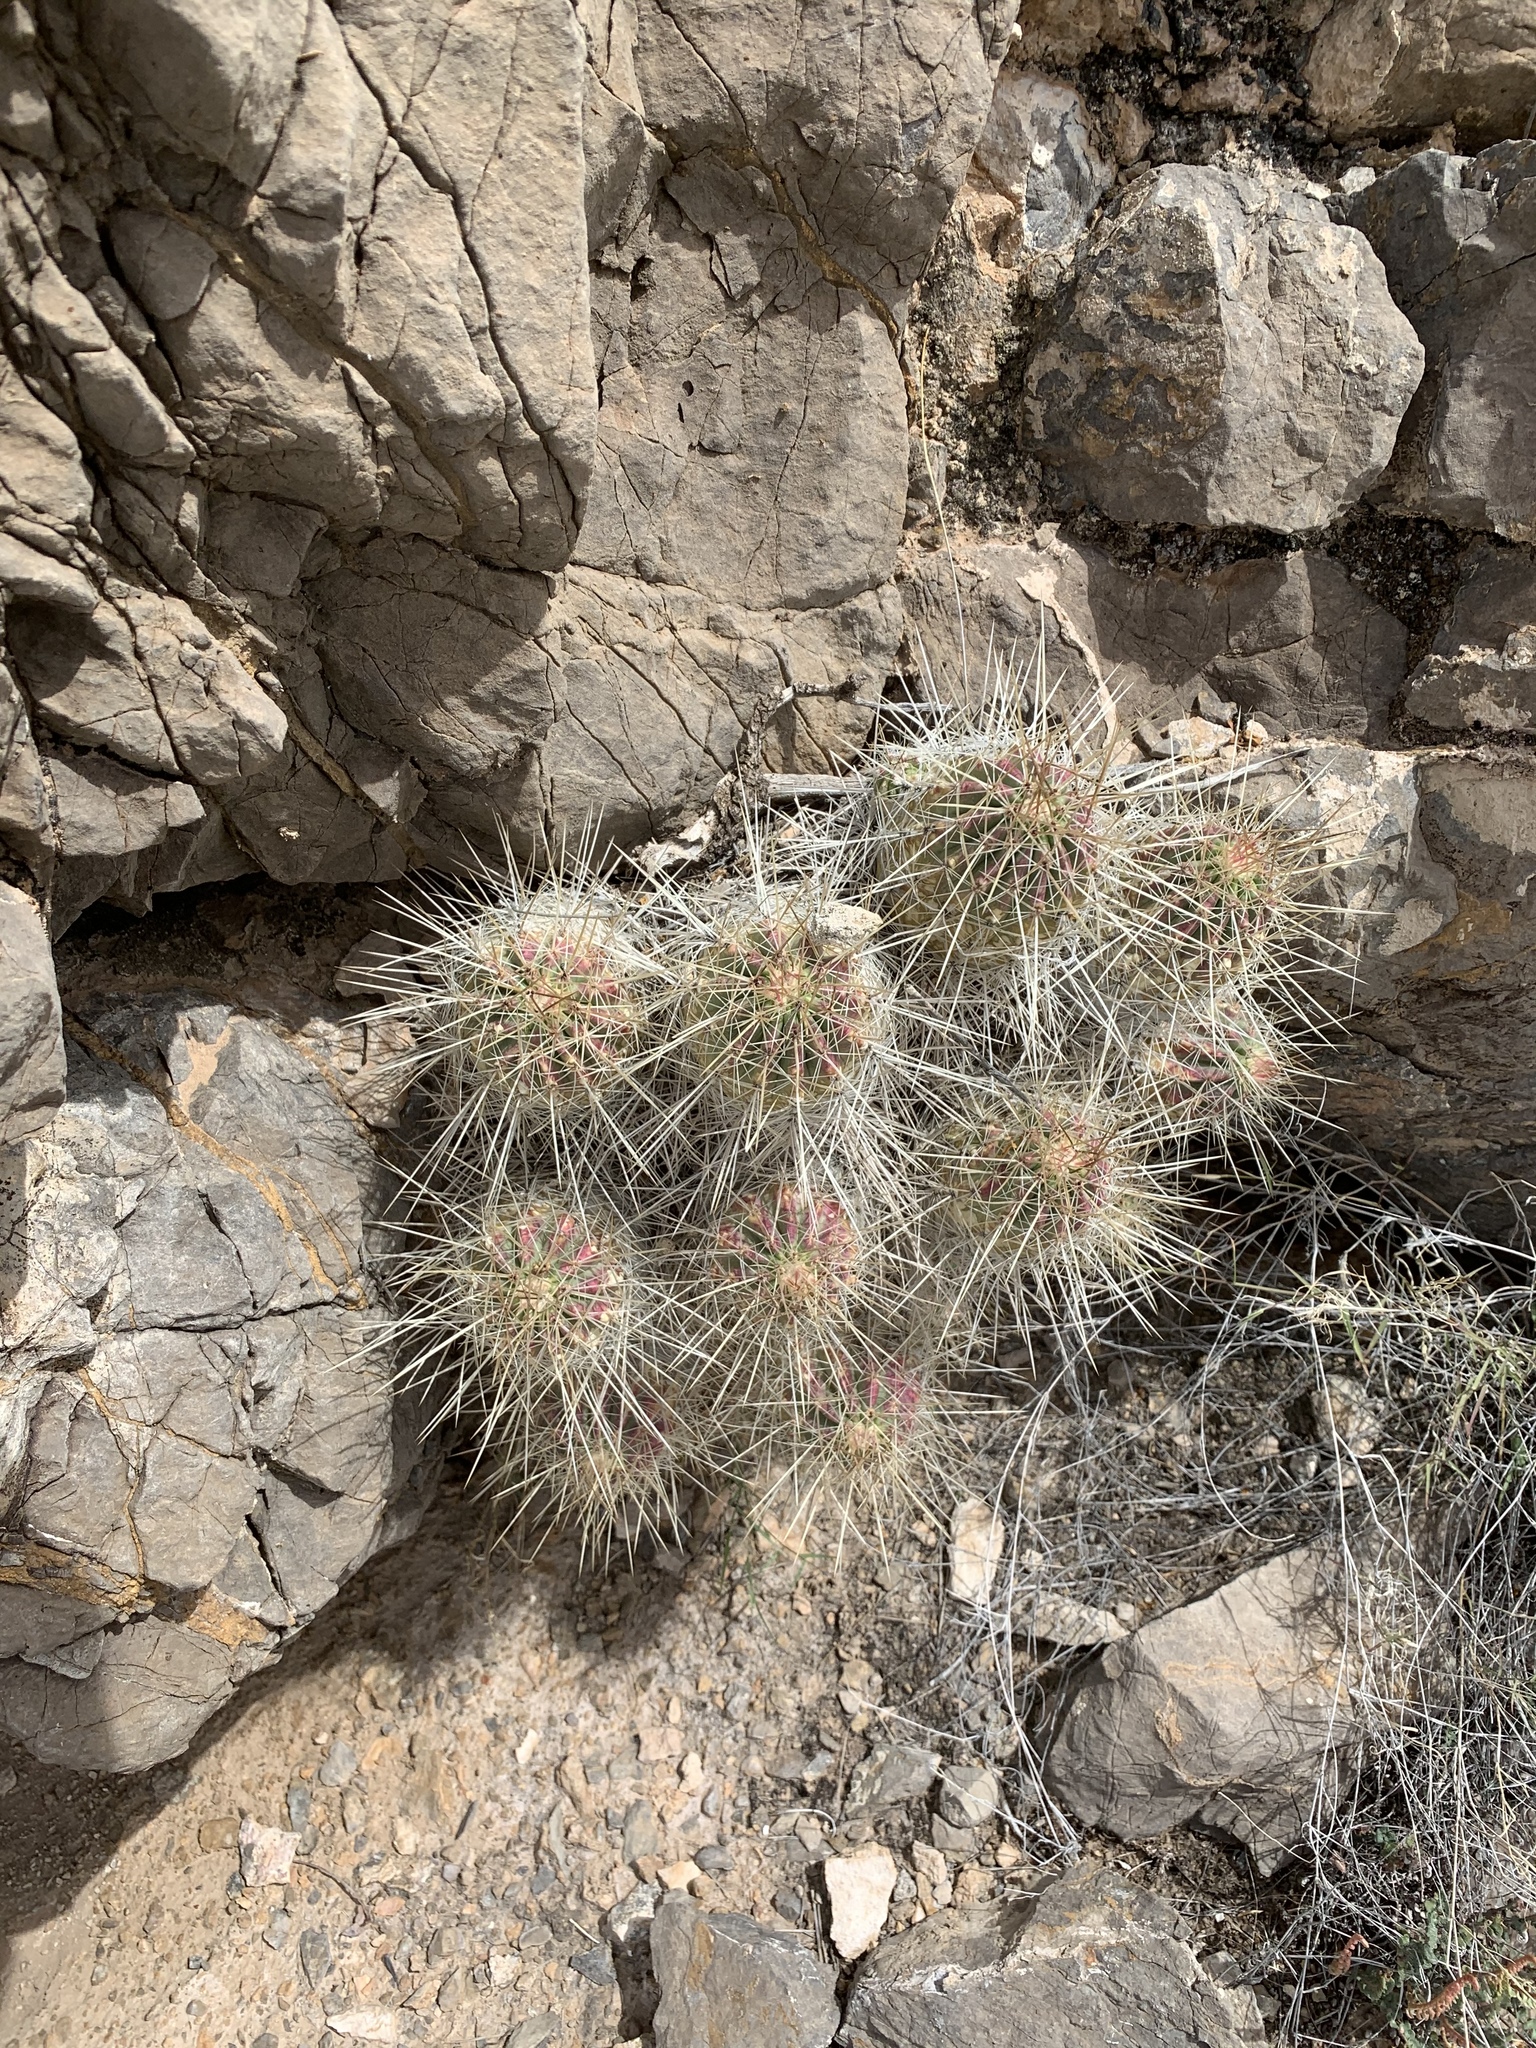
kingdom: Plantae
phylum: Tracheophyta
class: Magnoliopsida
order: Caryophyllales
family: Cactaceae
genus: Echinocereus
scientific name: Echinocereus stramineus
